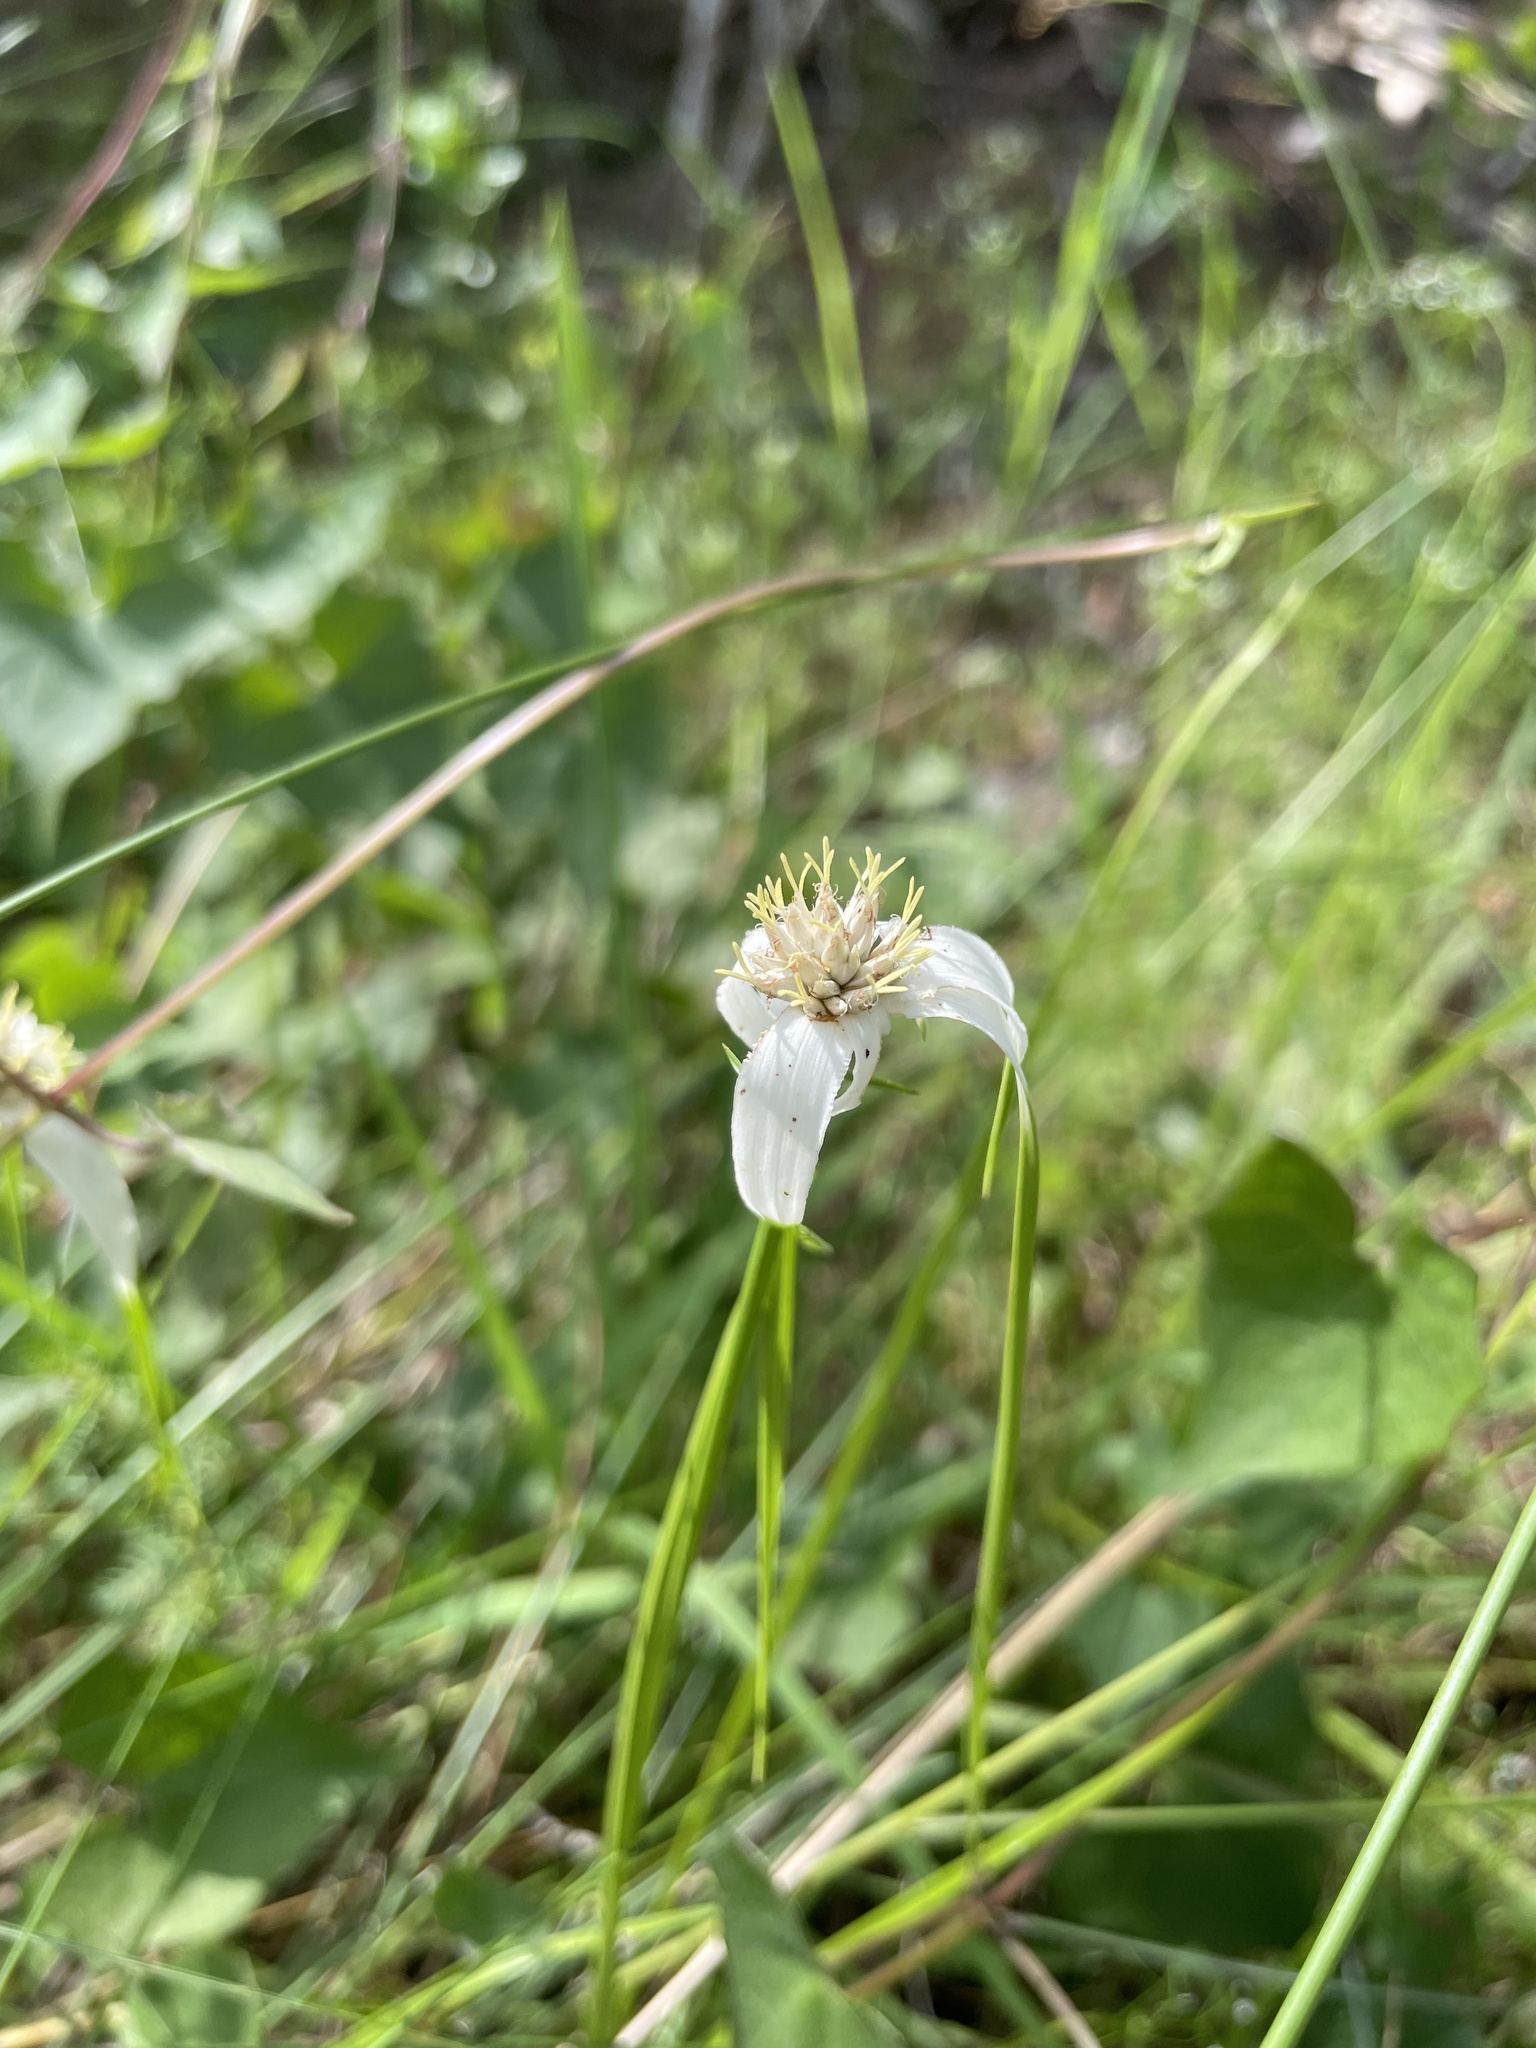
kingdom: Plantae
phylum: Tracheophyta
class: Liliopsida
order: Poales
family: Cyperaceae
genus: Rhynchospora
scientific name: Rhynchospora colorata
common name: Star sedge
